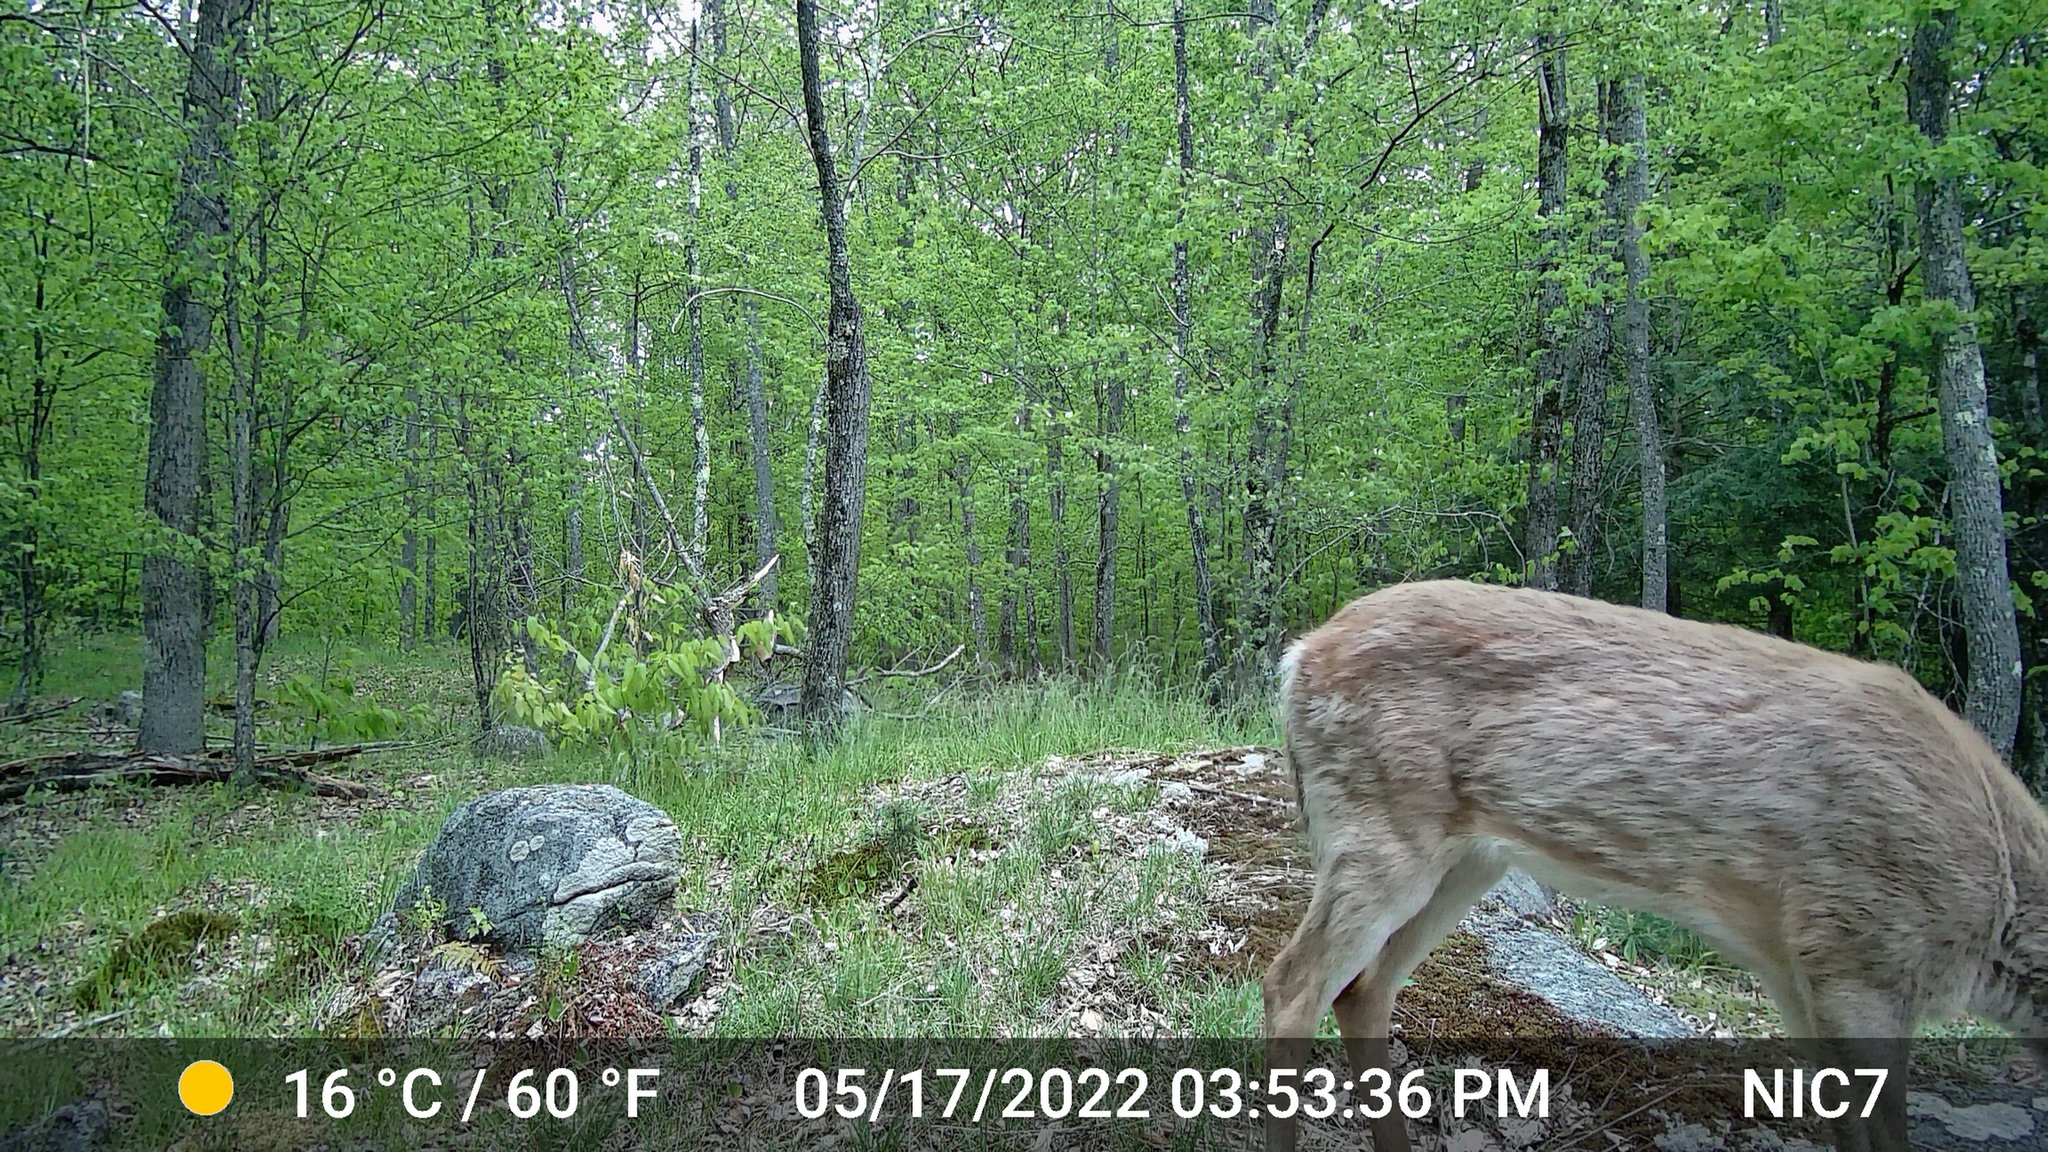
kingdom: Animalia
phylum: Chordata
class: Mammalia
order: Artiodactyla
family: Cervidae
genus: Odocoileus
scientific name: Odocoileus virginianus
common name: White-tailed deer
